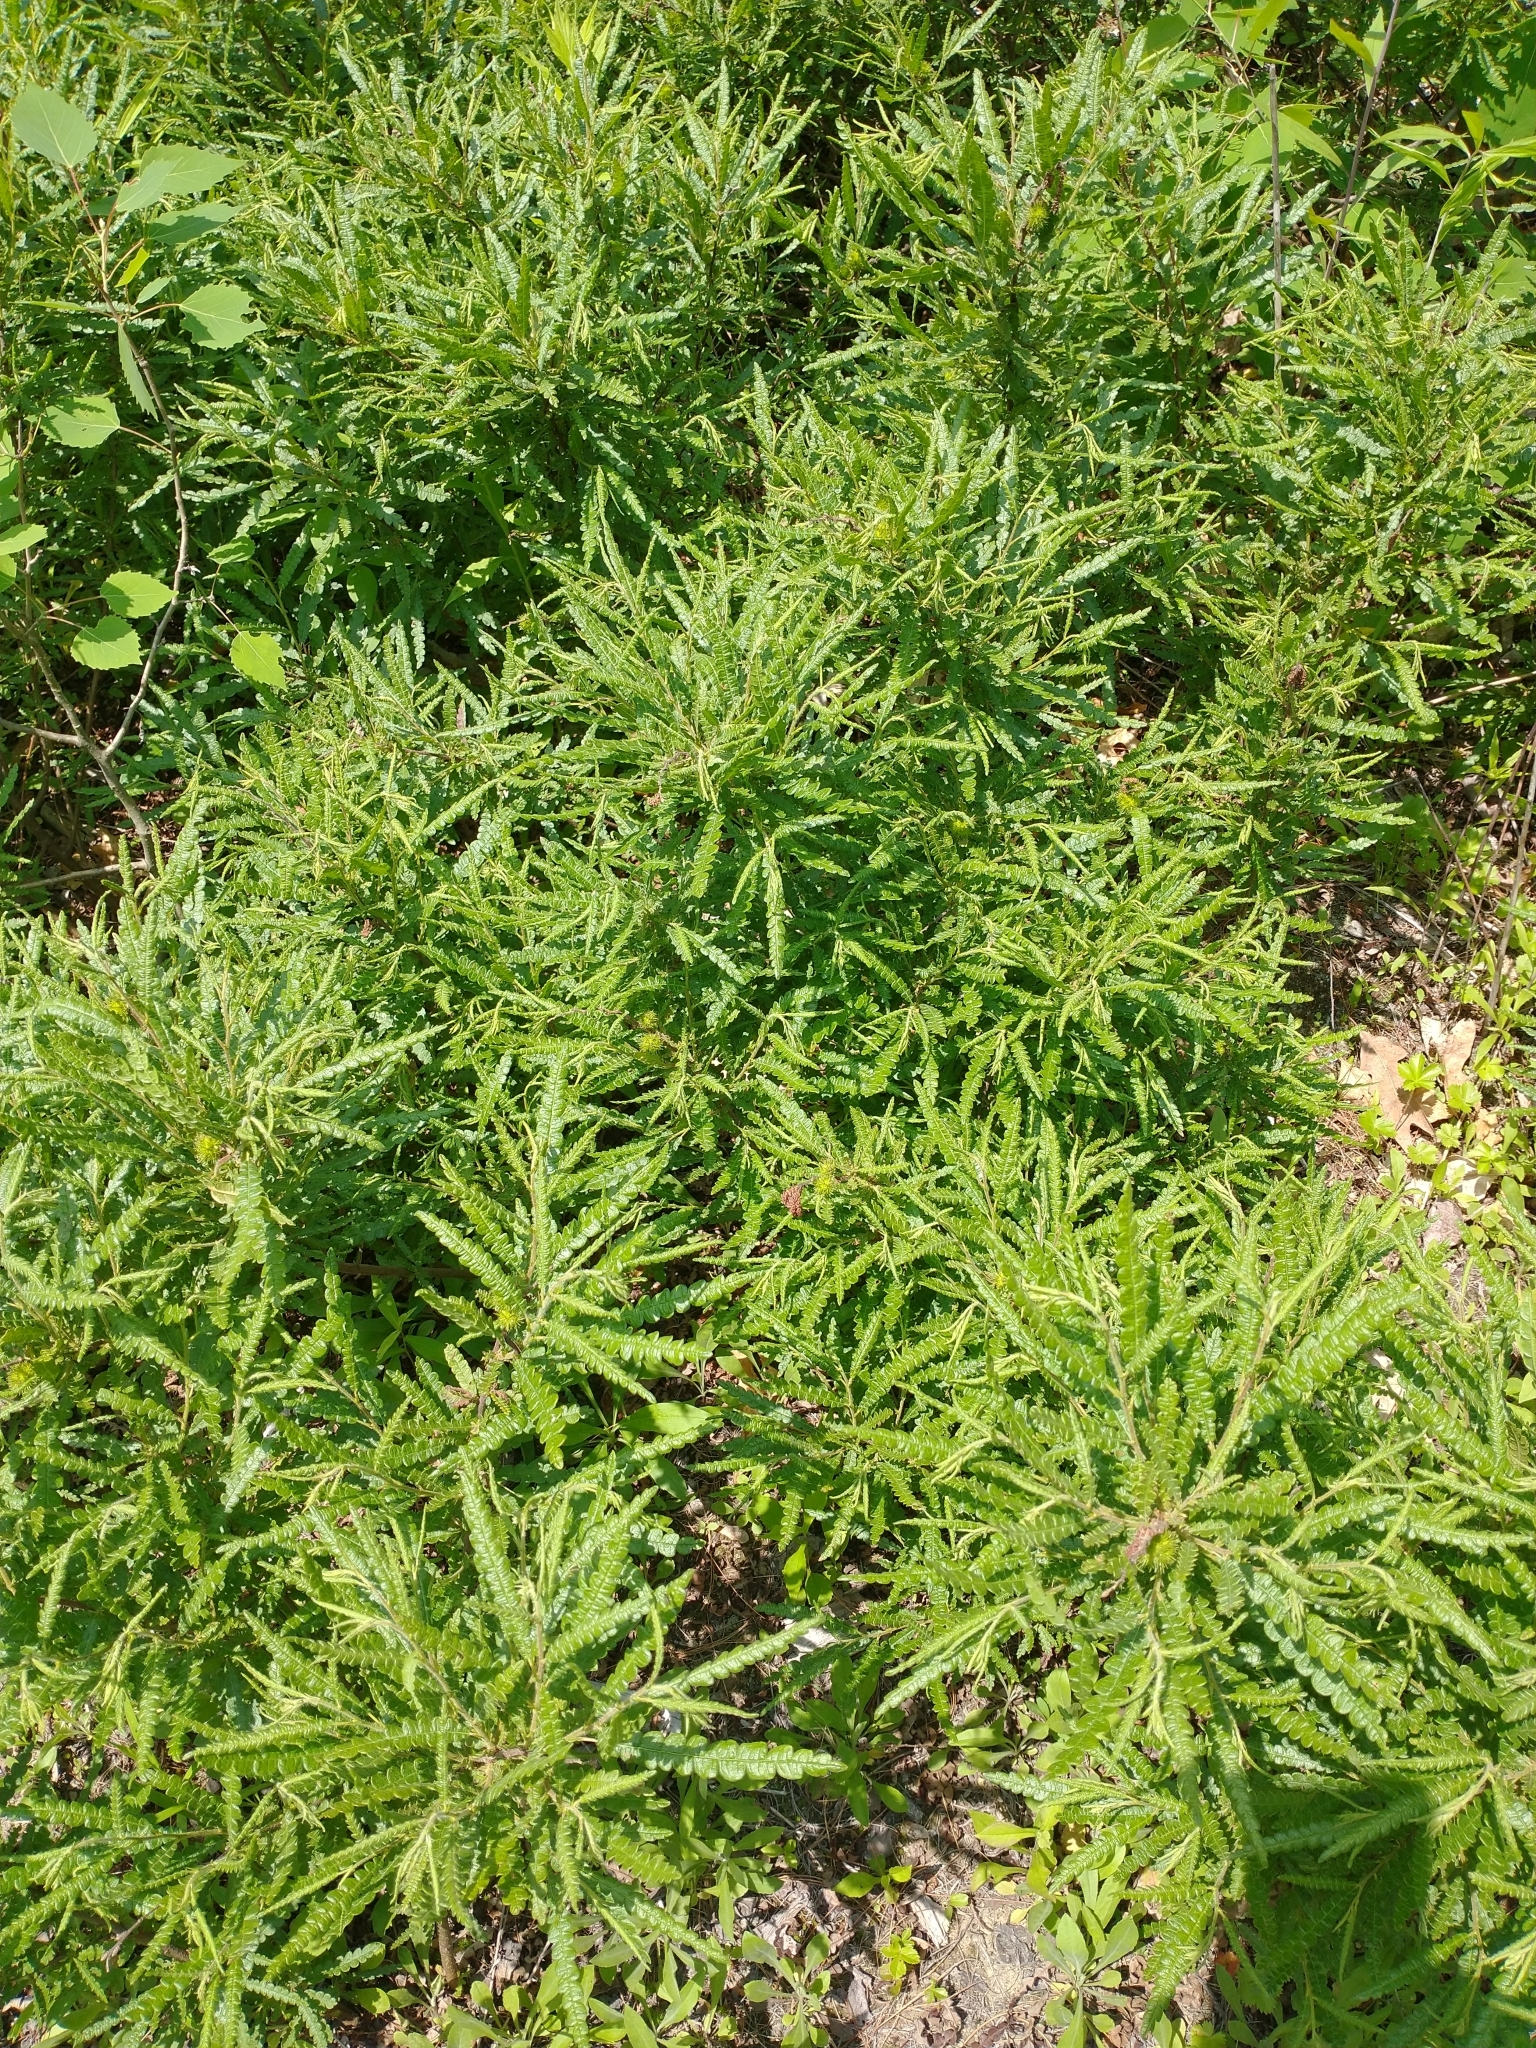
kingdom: Plantae
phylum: Tracheophyta
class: Magnoliopsida
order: Fagales
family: Myricaceae
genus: Comptonia
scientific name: Comptonia peregrina
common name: Sweet-fern
